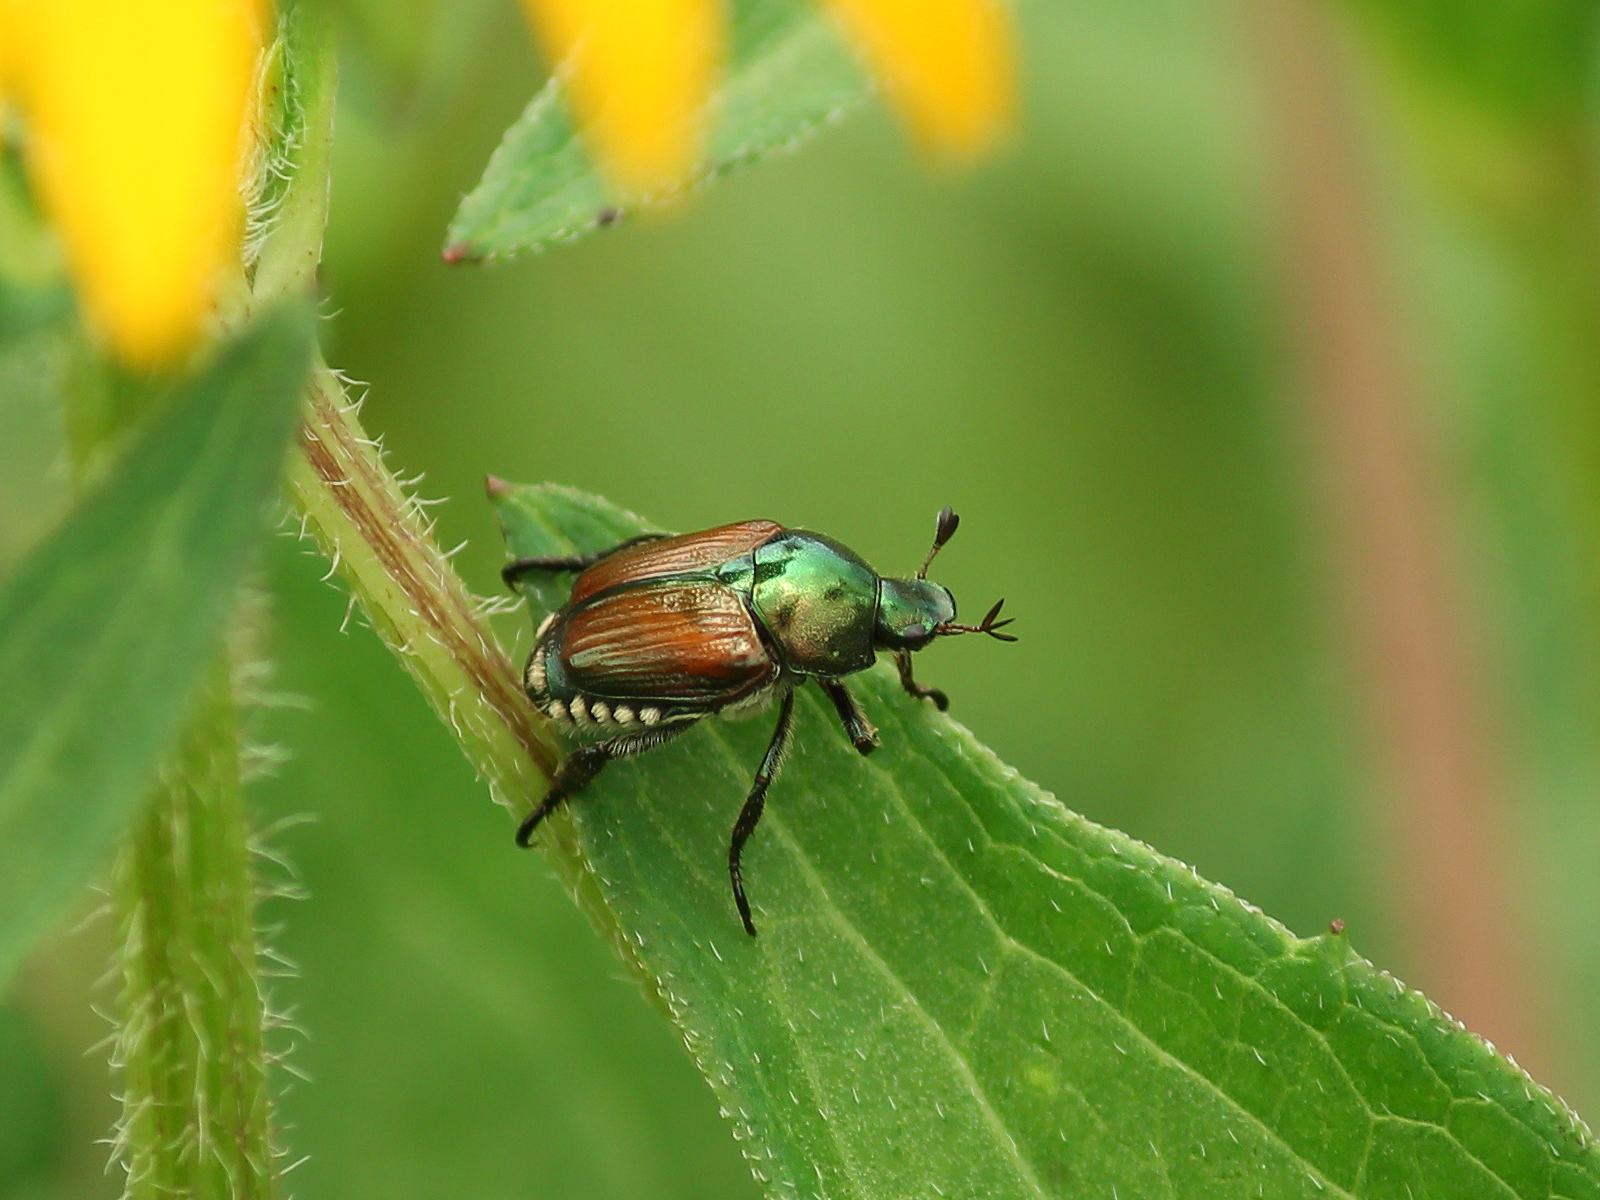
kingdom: Animalia
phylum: Arthropoda
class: Insecta
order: Coleoptera
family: Scarabaeidae
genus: Popillia
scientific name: Popillia japonica
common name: Japanese beetle
